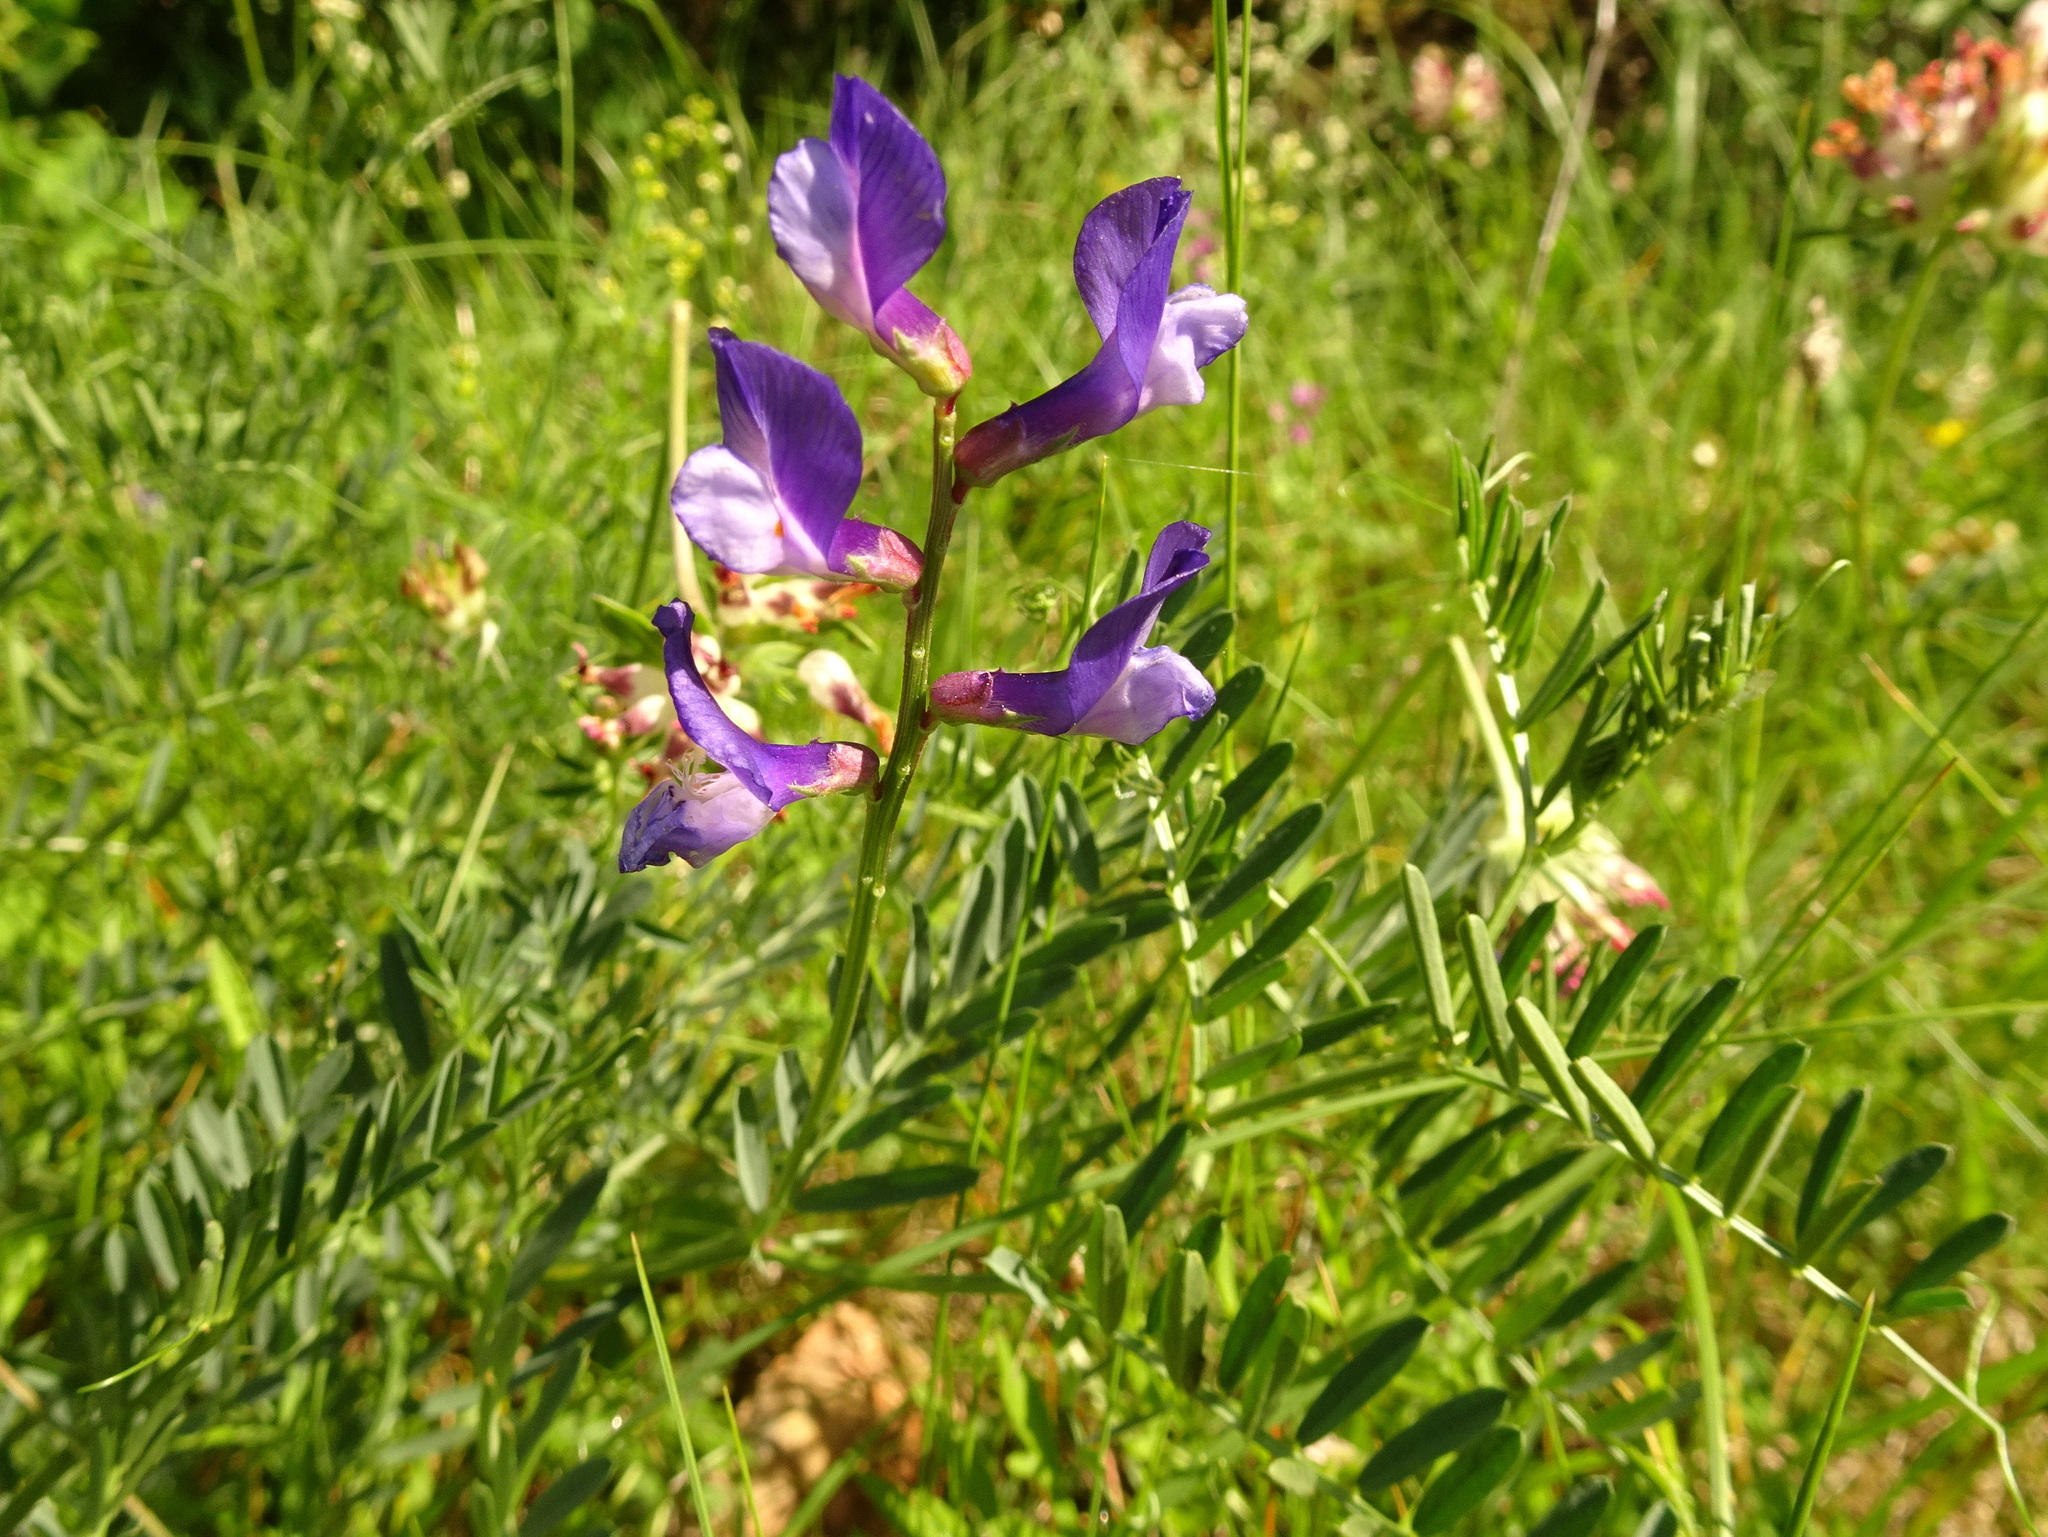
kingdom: Plantae
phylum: Tracheophyta
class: Magnoliopsida
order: Fabales
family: Fabaceae
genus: Vicia
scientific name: Vicia onobrychioides
